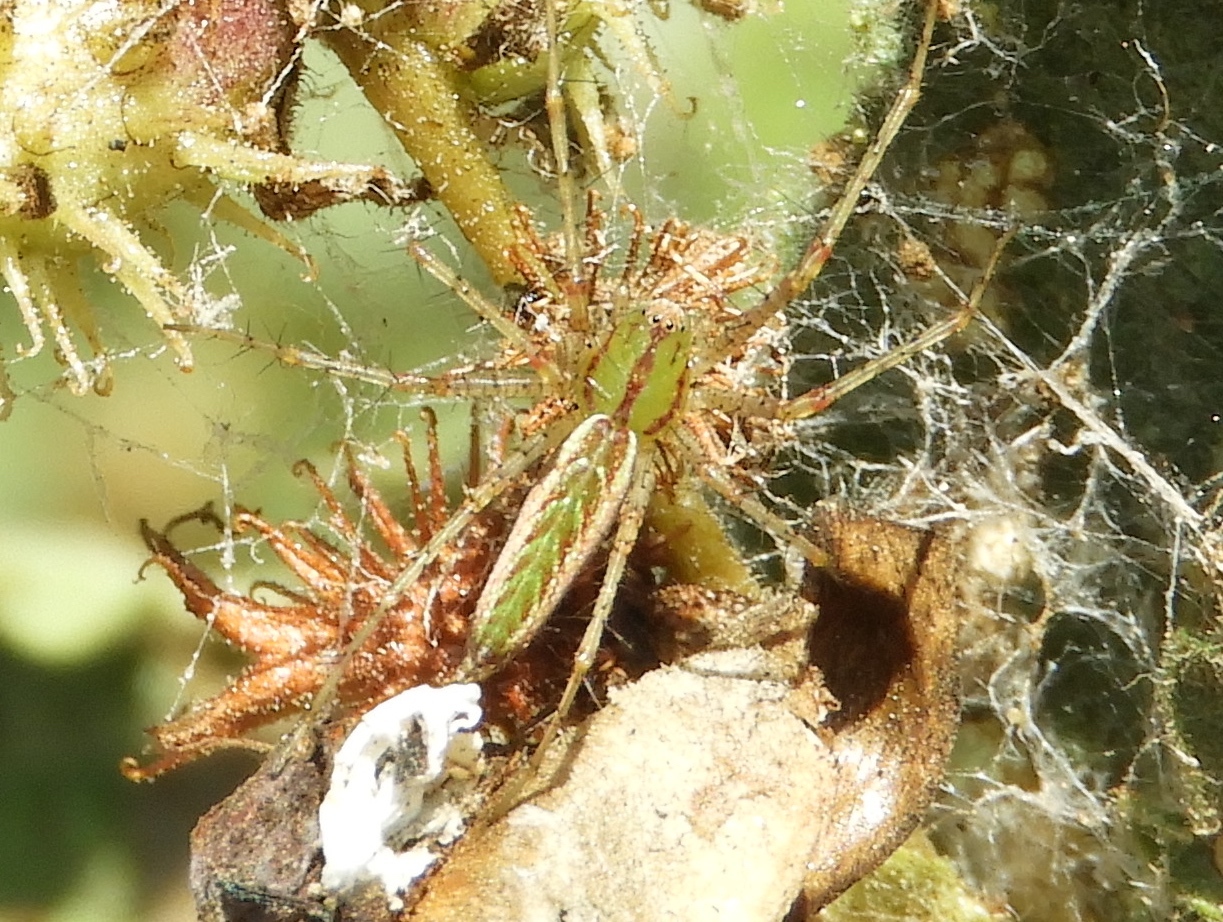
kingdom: Animalia
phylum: Arthropoda
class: Arachnida
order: Araneae
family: Oxyopidae
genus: Peucetia
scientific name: Peucetia
